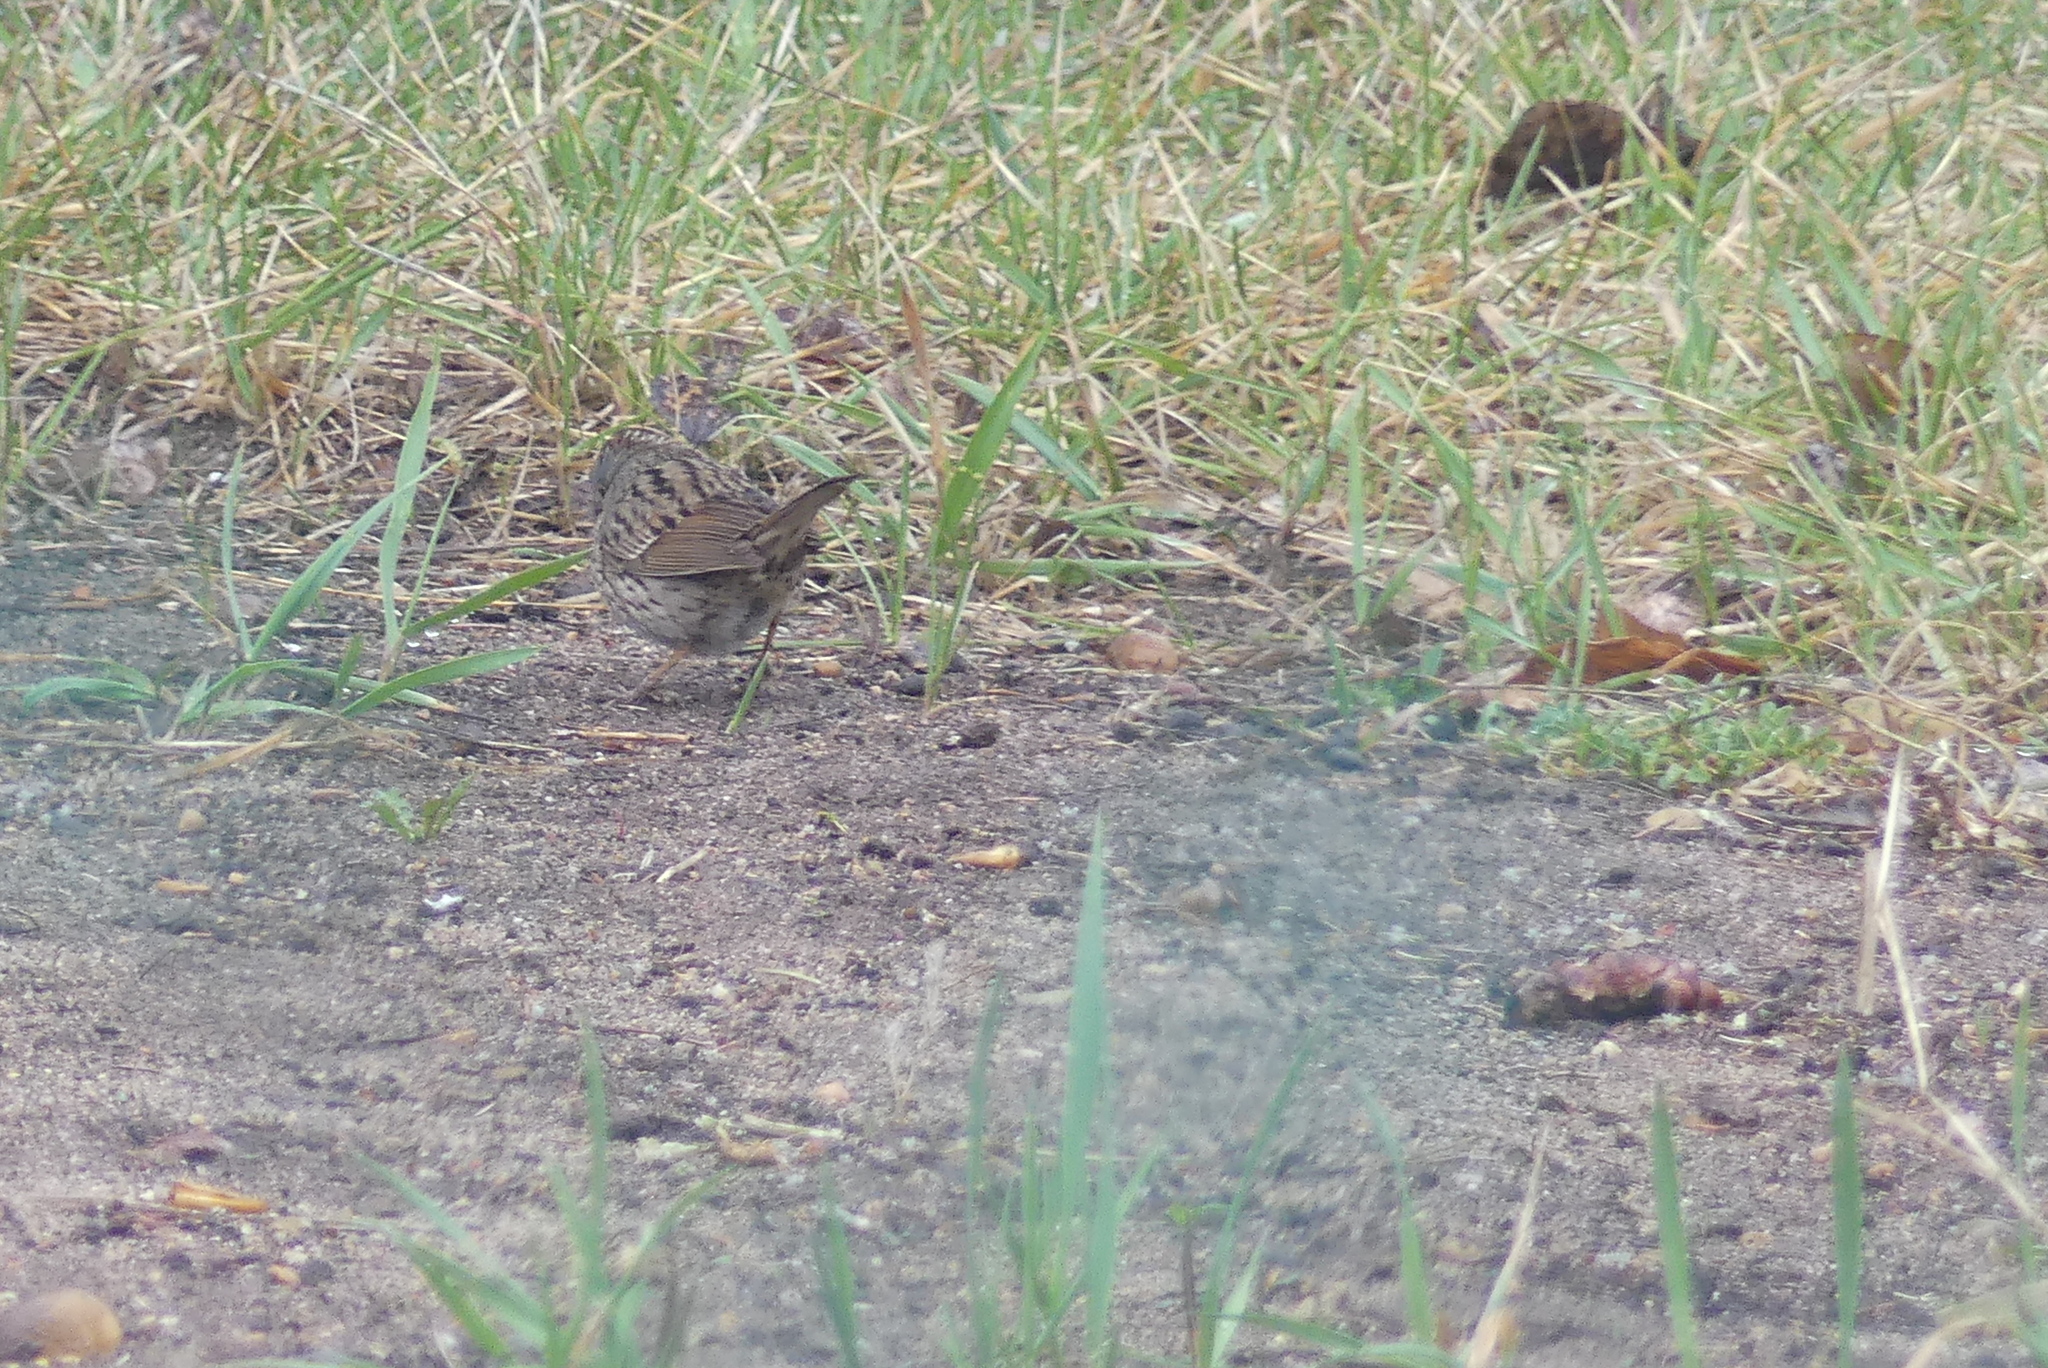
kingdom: Animalia
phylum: Chordata
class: Aves
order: Passeriformes
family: Passerellidae
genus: Melospiza
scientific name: Melospiza lincolnii
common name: Lincoln's sparrow
